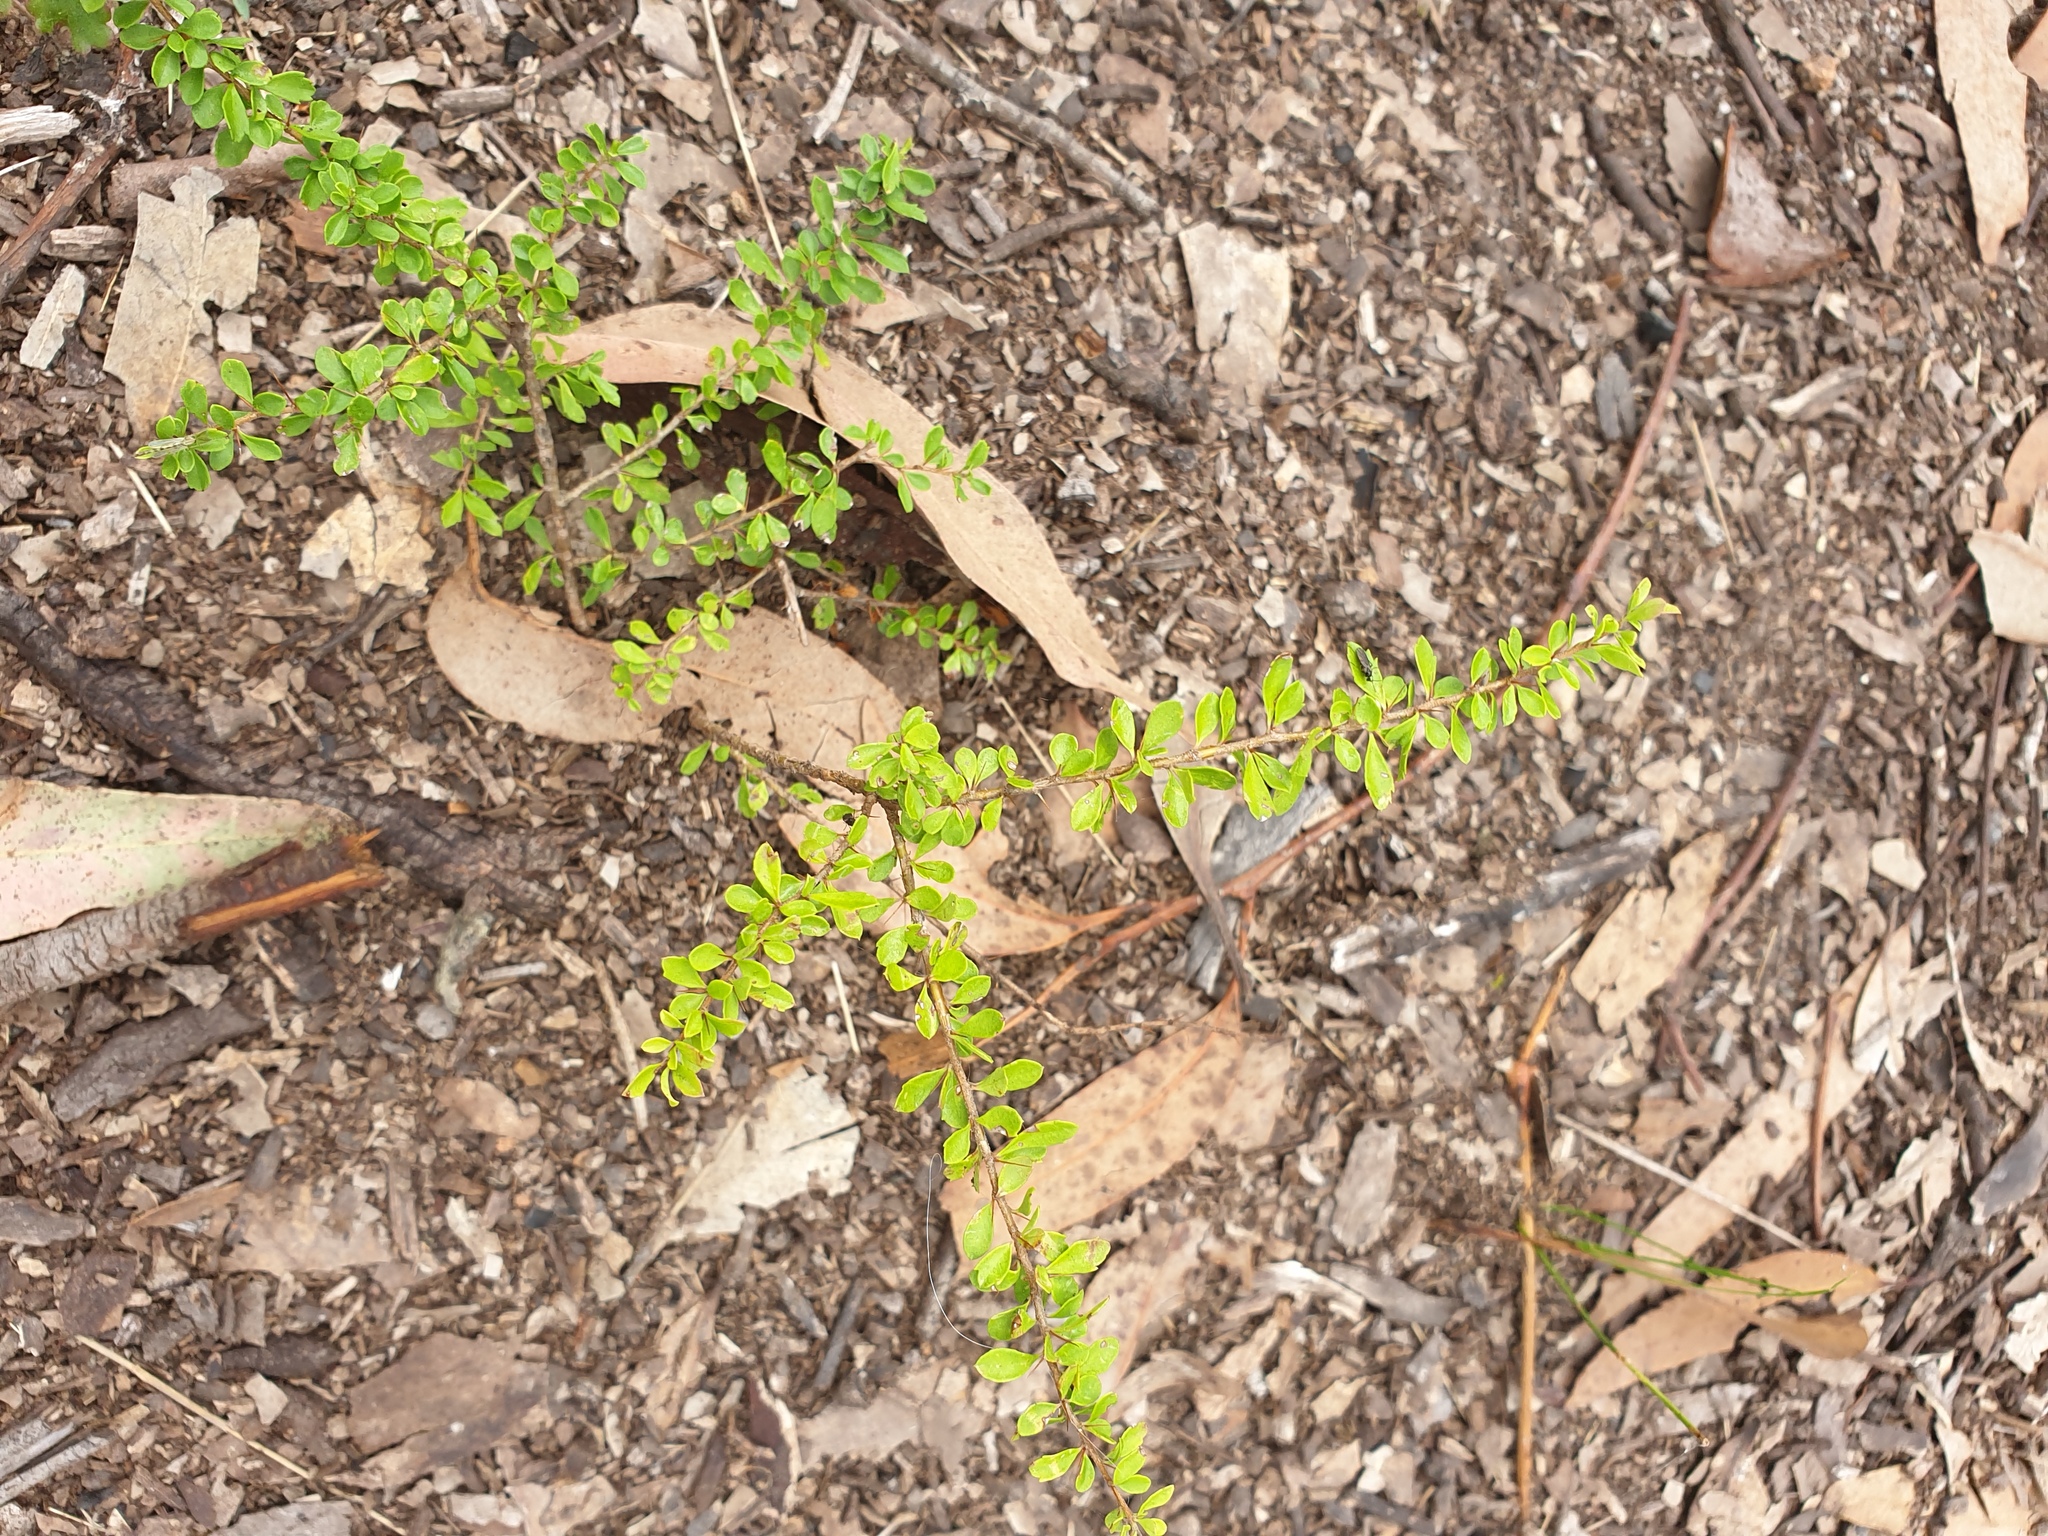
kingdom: Plantae
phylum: Tracheophyta
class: Magnoliopsida
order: Apiales
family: Pittosporaceae
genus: Bursaria
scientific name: Bursaria spinosa
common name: Australian blackthorn
